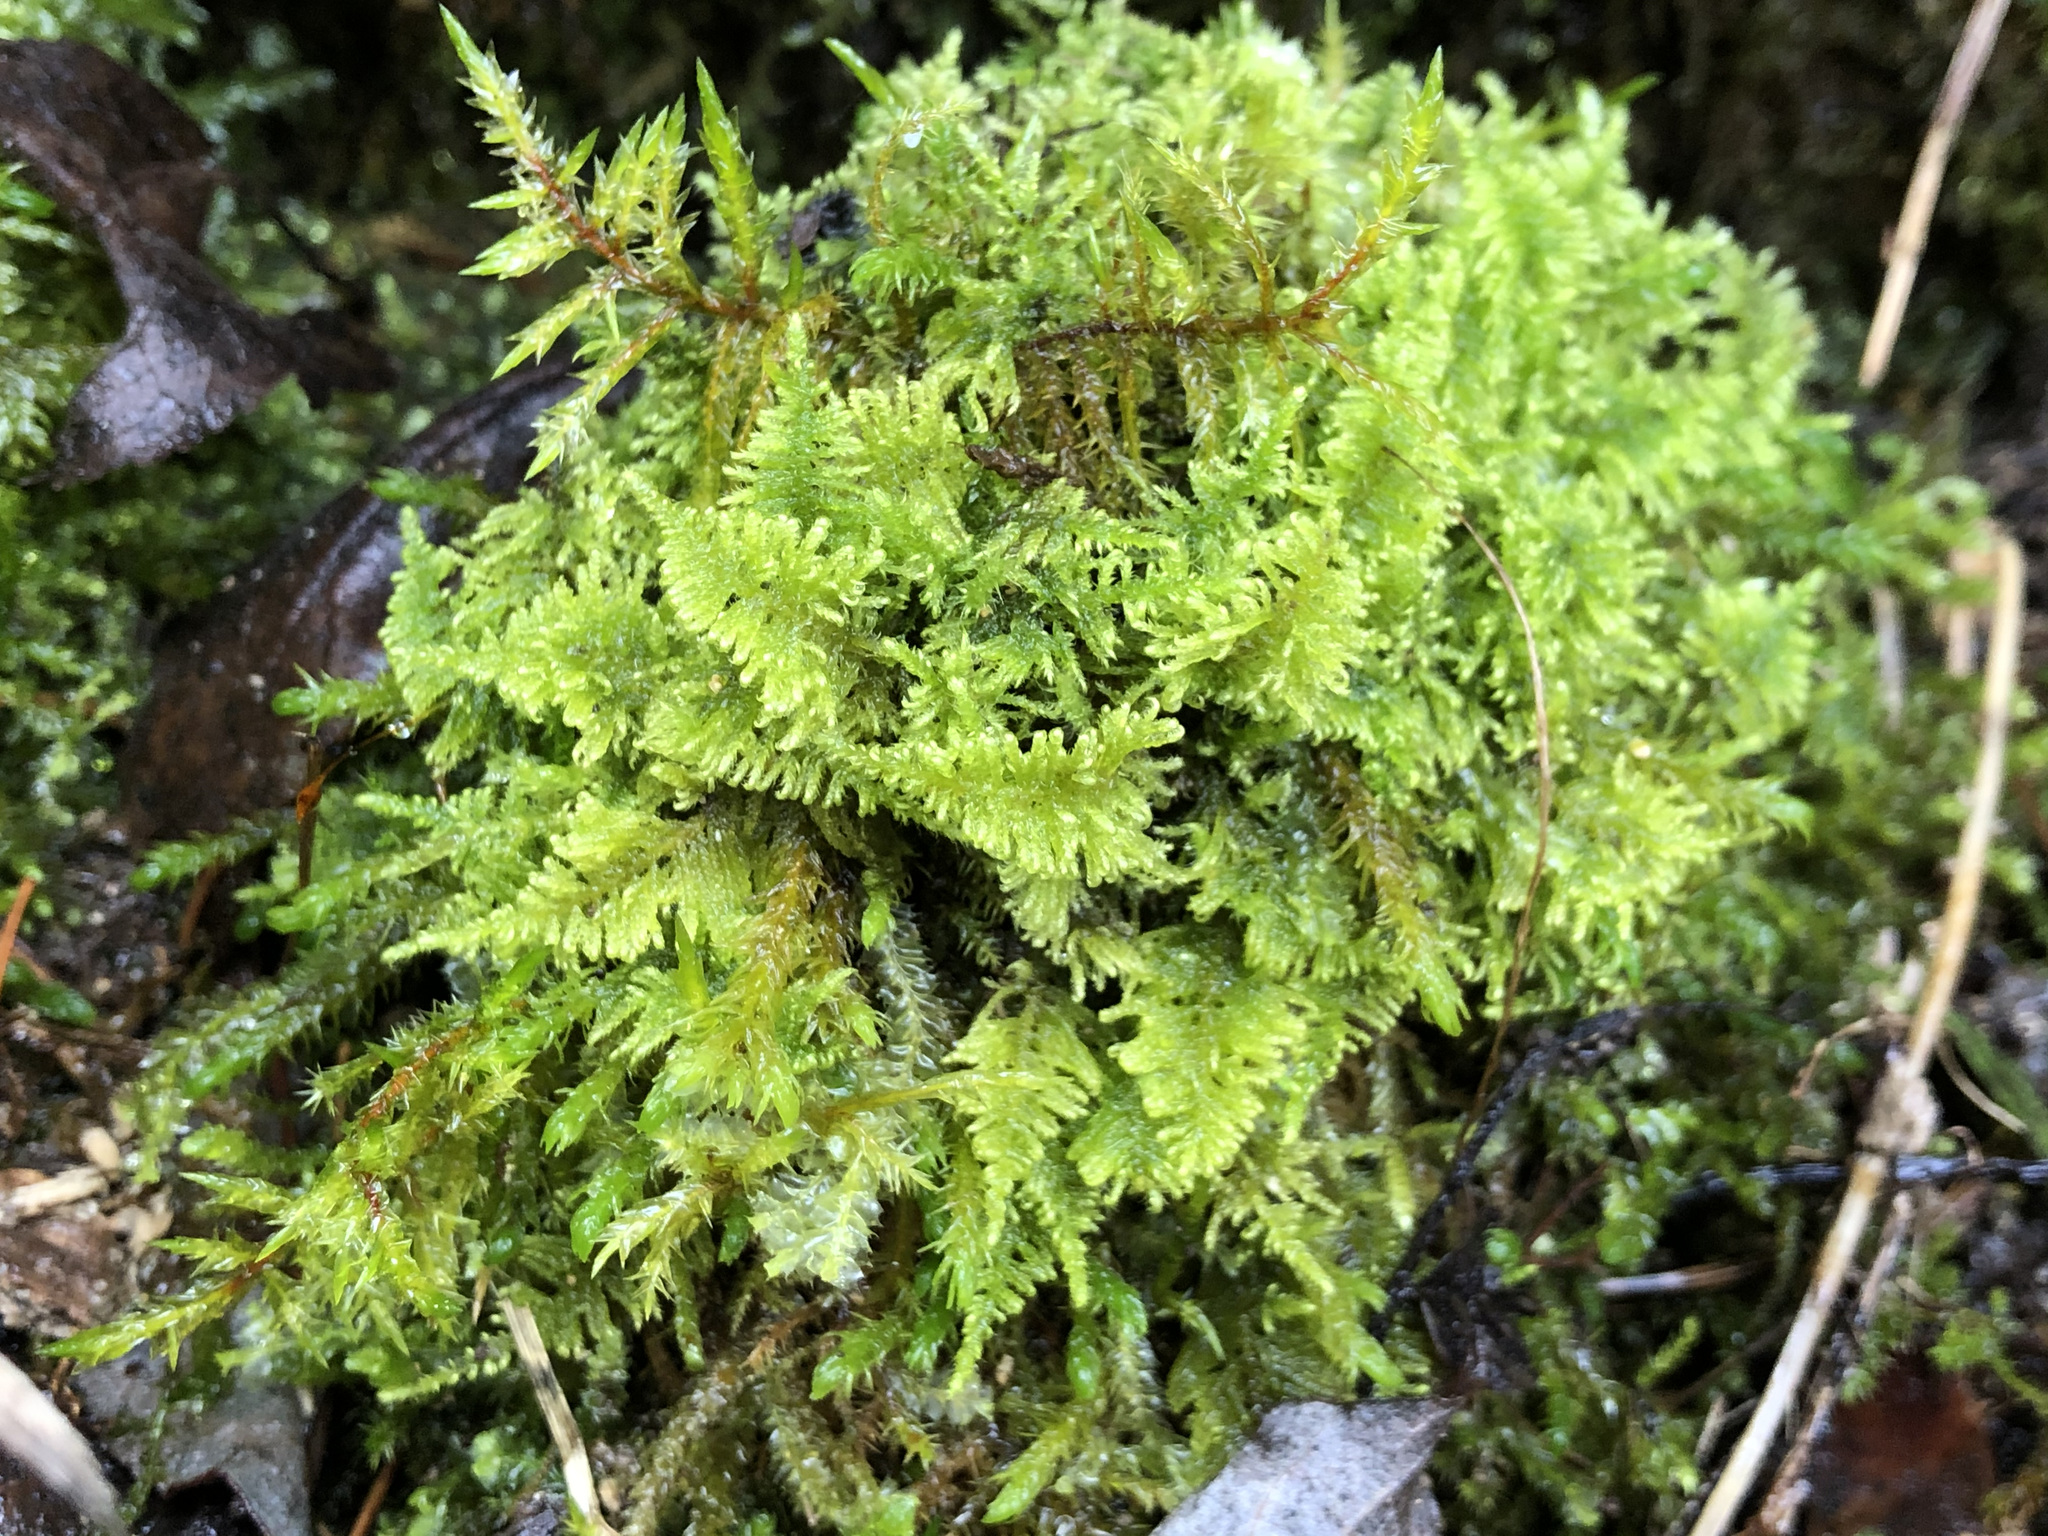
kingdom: Plantae
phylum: Bryophyta
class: Bryopsida
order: Hypnales
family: Myuriaceae
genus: Ctenidium
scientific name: Ctenidium molluscum
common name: Chalk comb-moss
